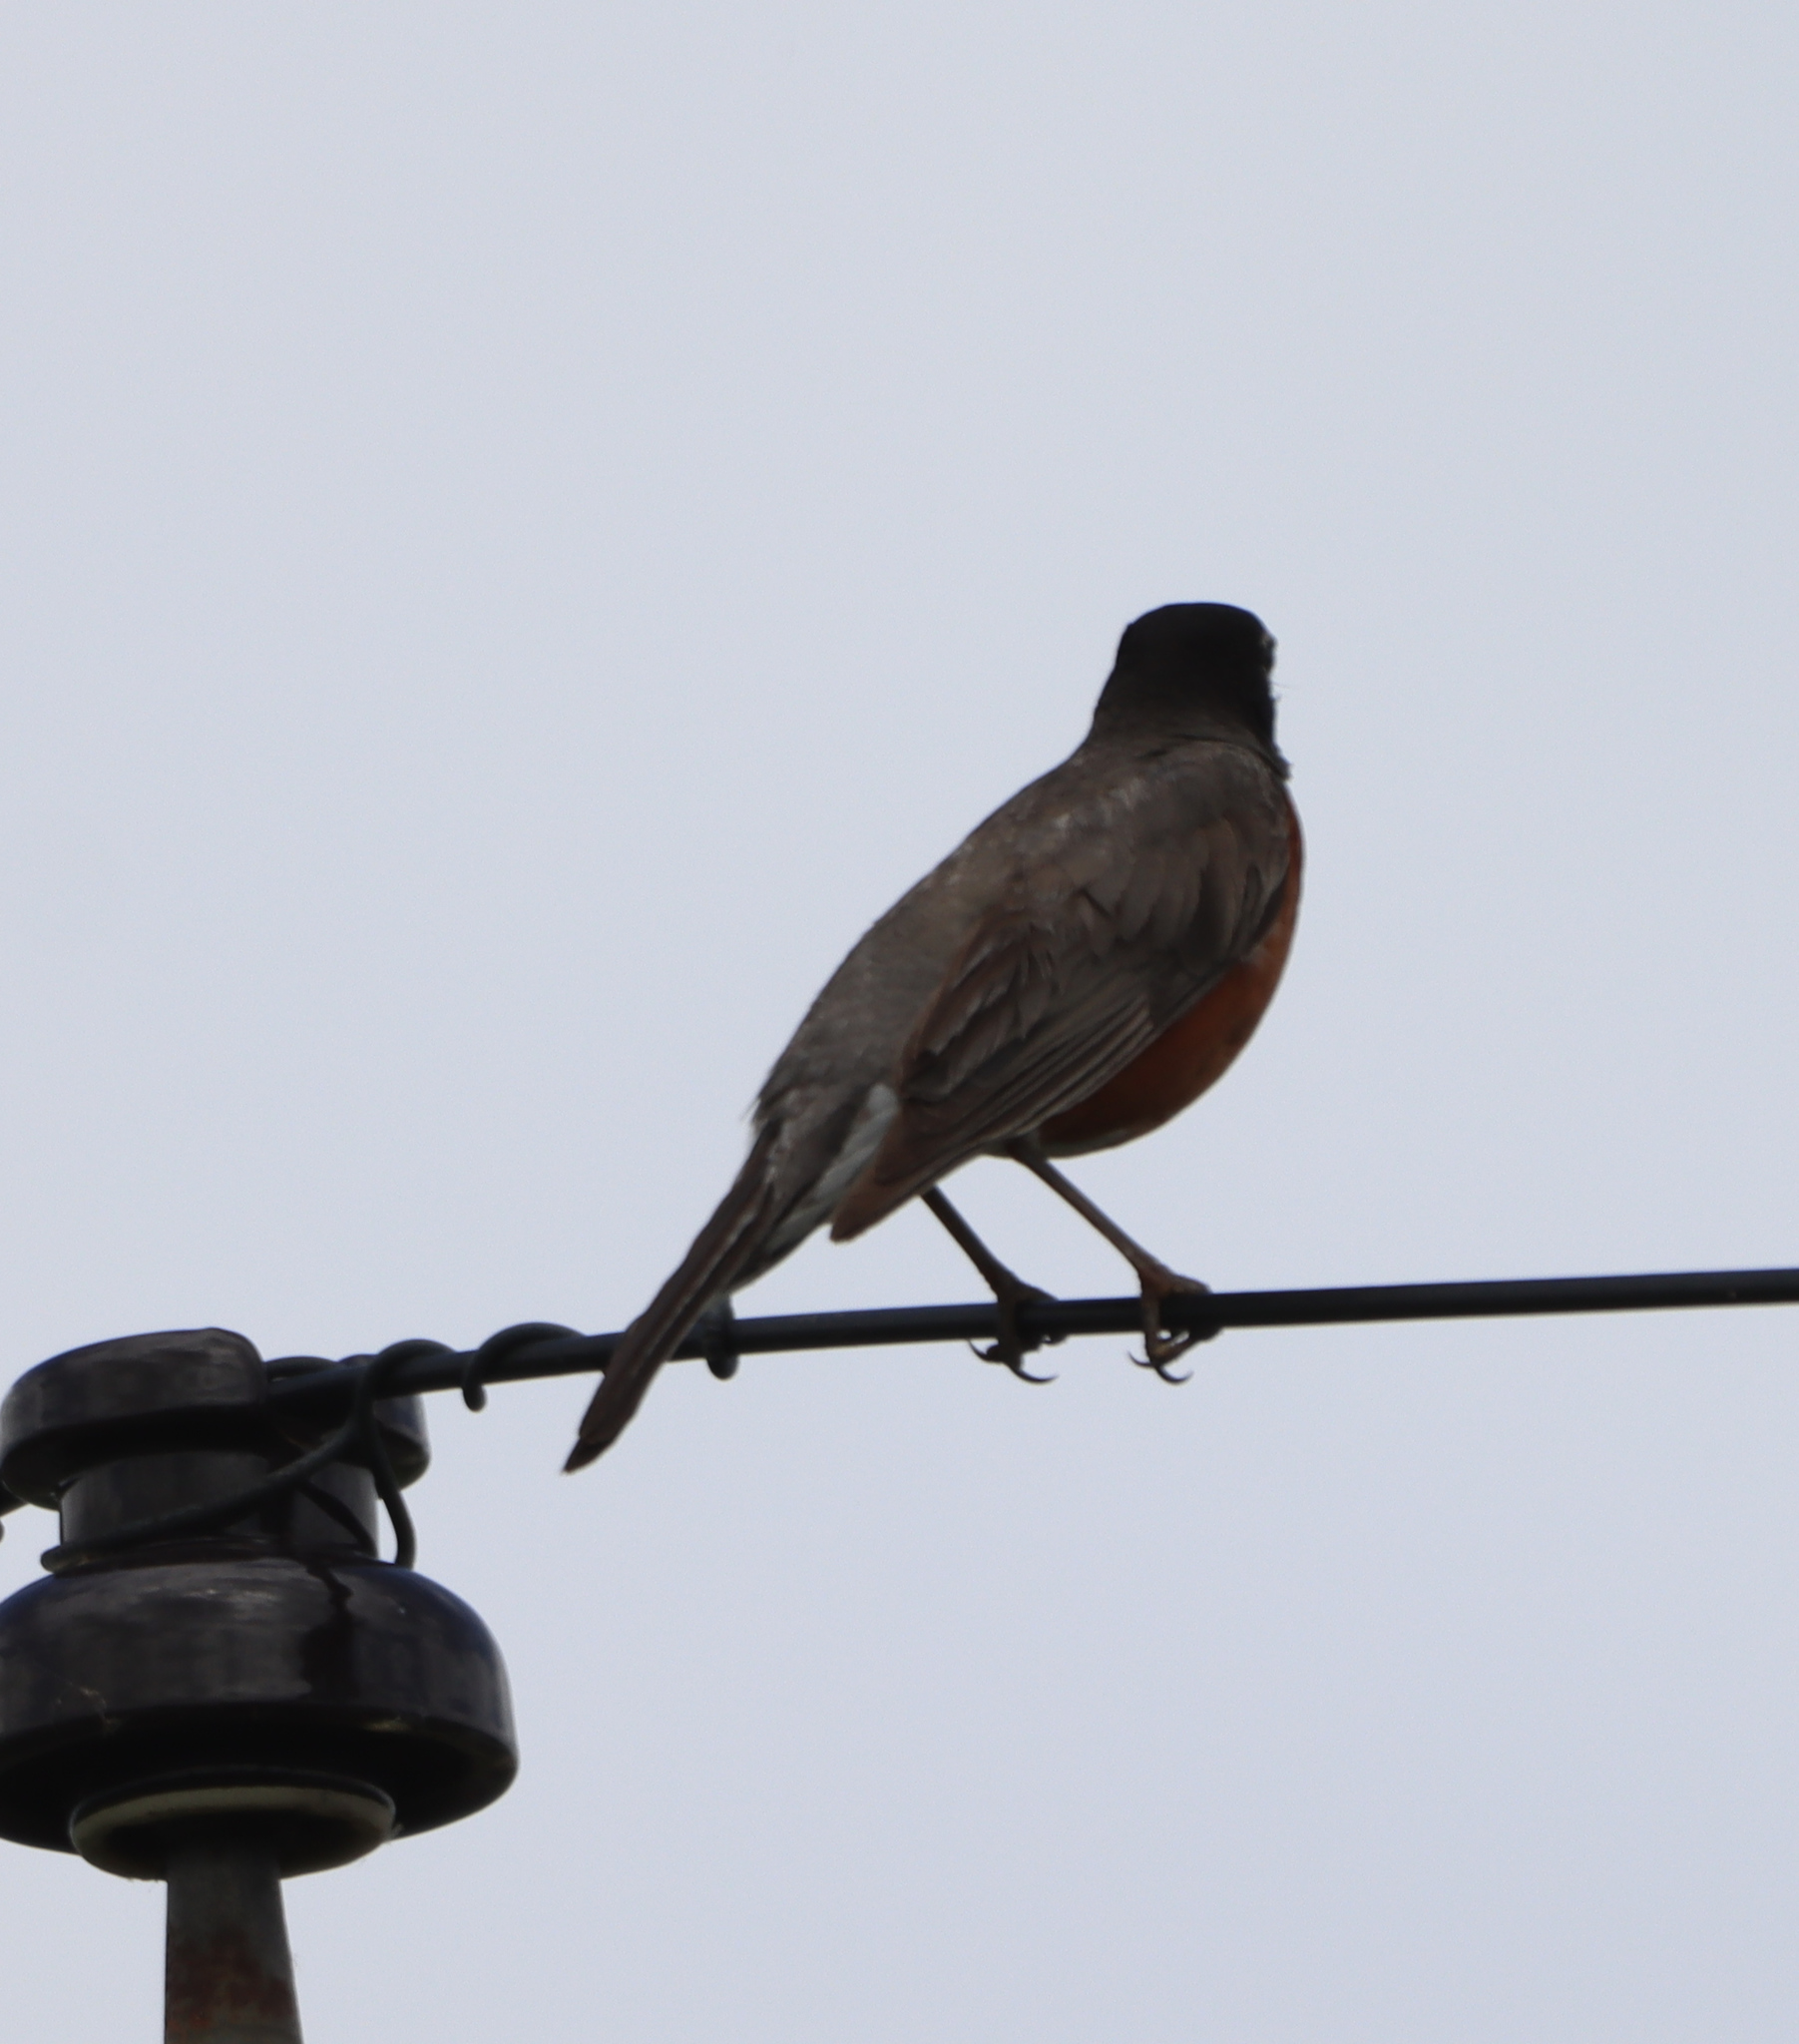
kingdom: Animalia
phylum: Chordata
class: Aves
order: Passeriformes
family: Turdidae
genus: Turdus
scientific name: Turdus migratorius
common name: American robin
